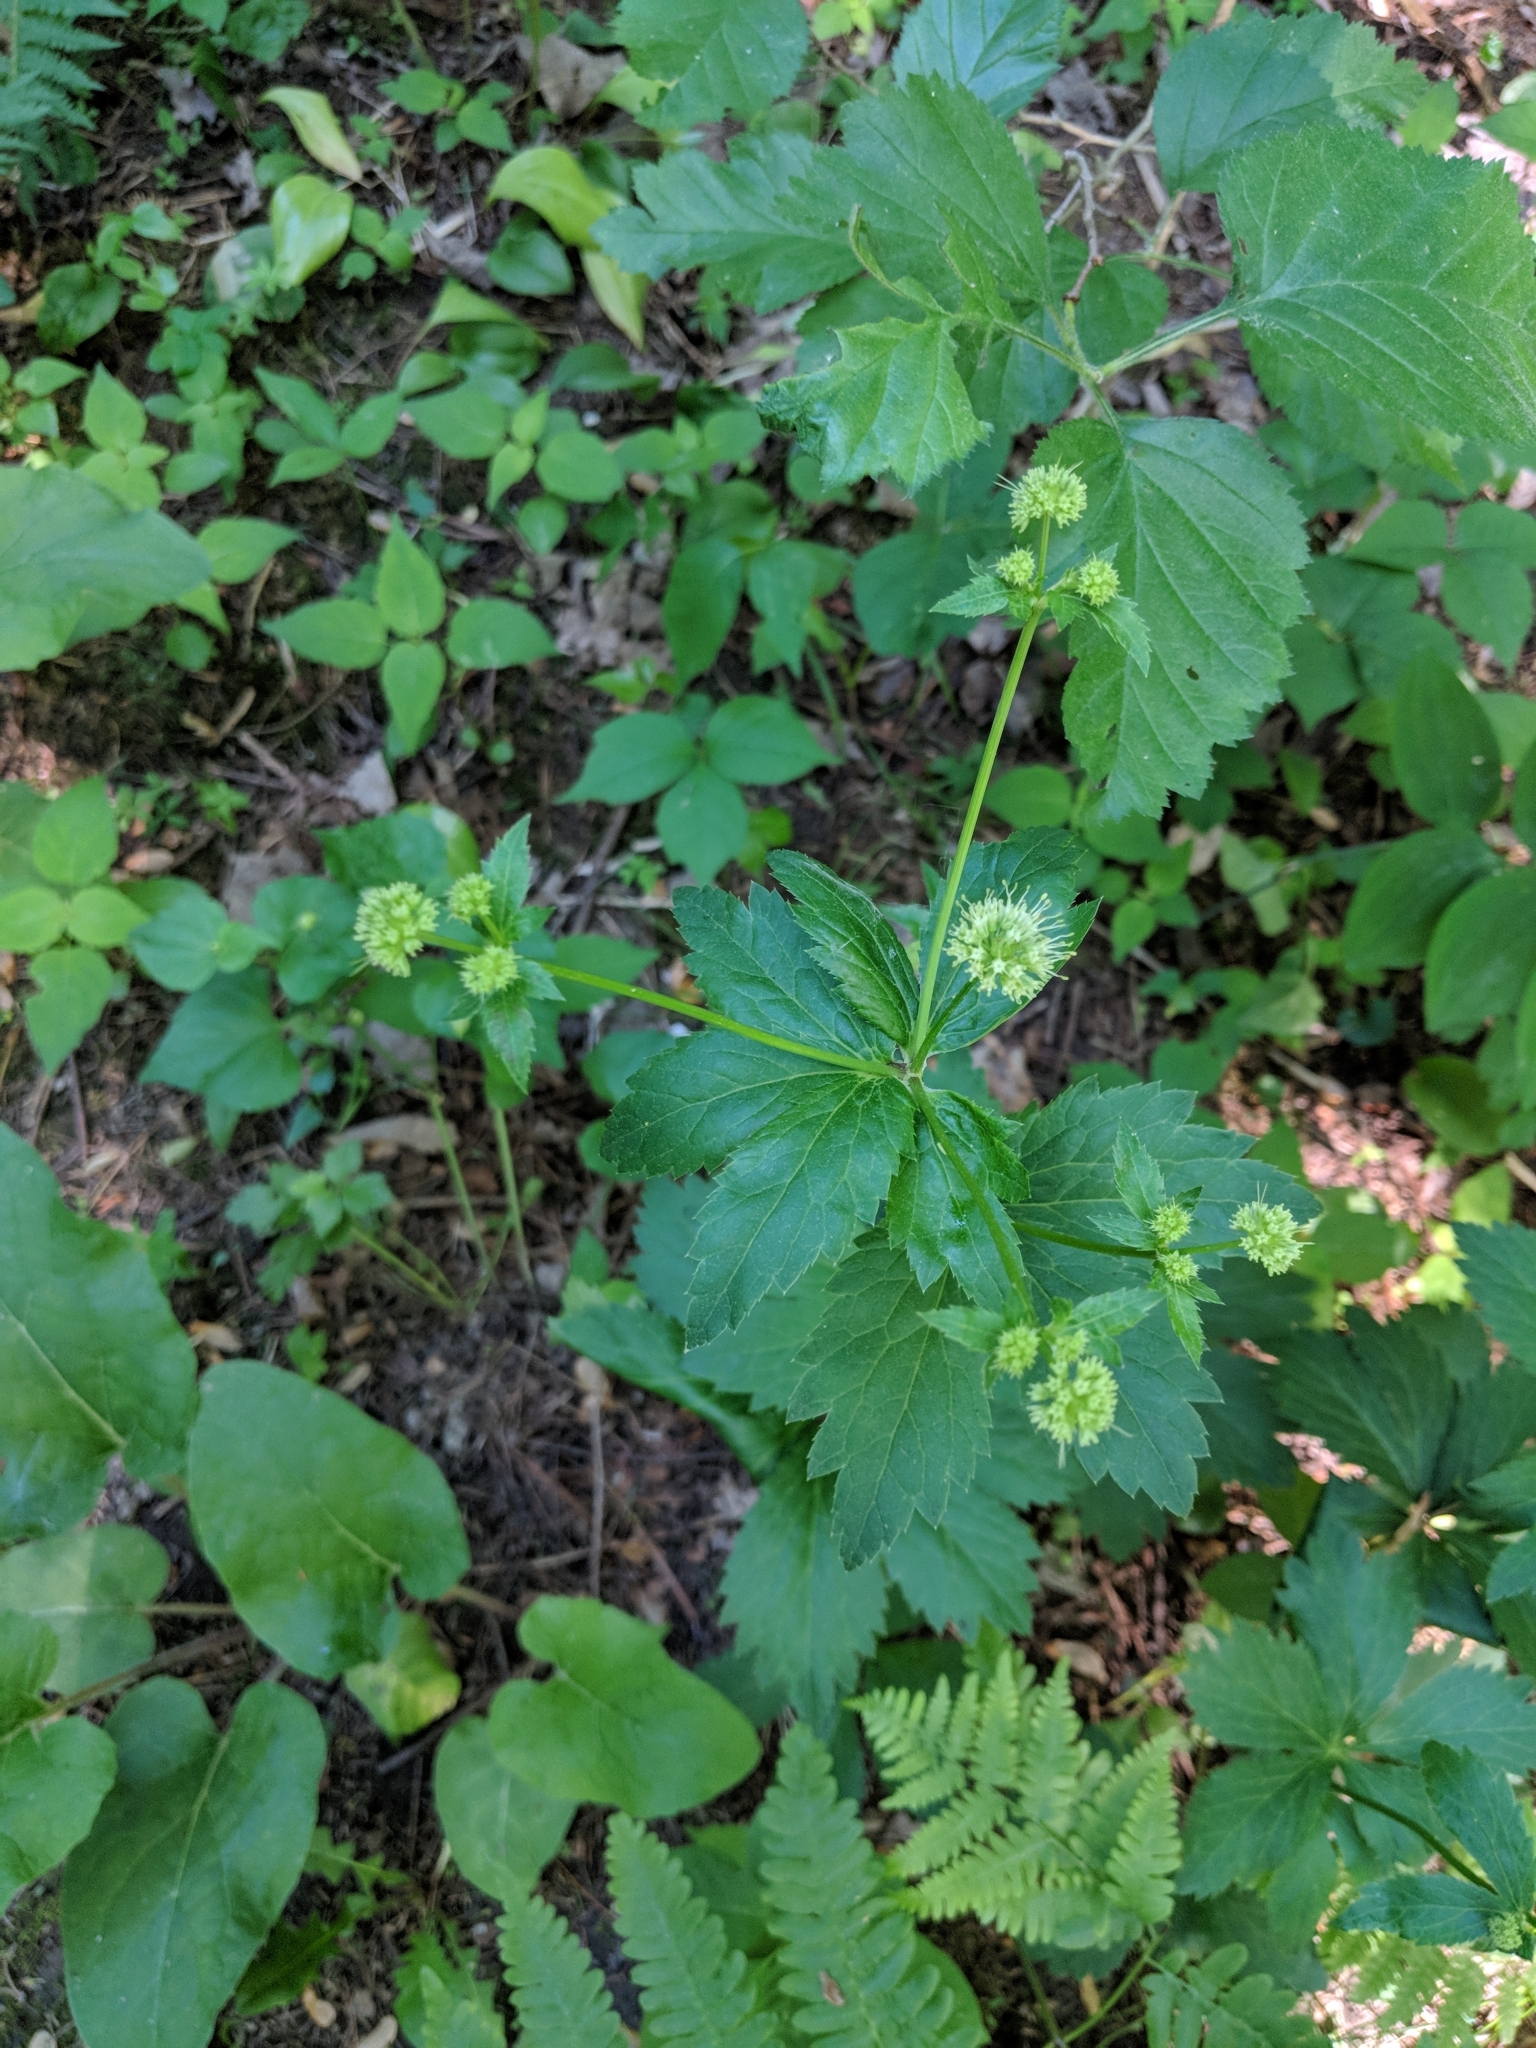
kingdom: Plantae
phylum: Tracheophyta
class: Magnoliopsida
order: Apiales
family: Apiaceae
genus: Sanicula
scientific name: Sanicula marilandica
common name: Black snakeroot
